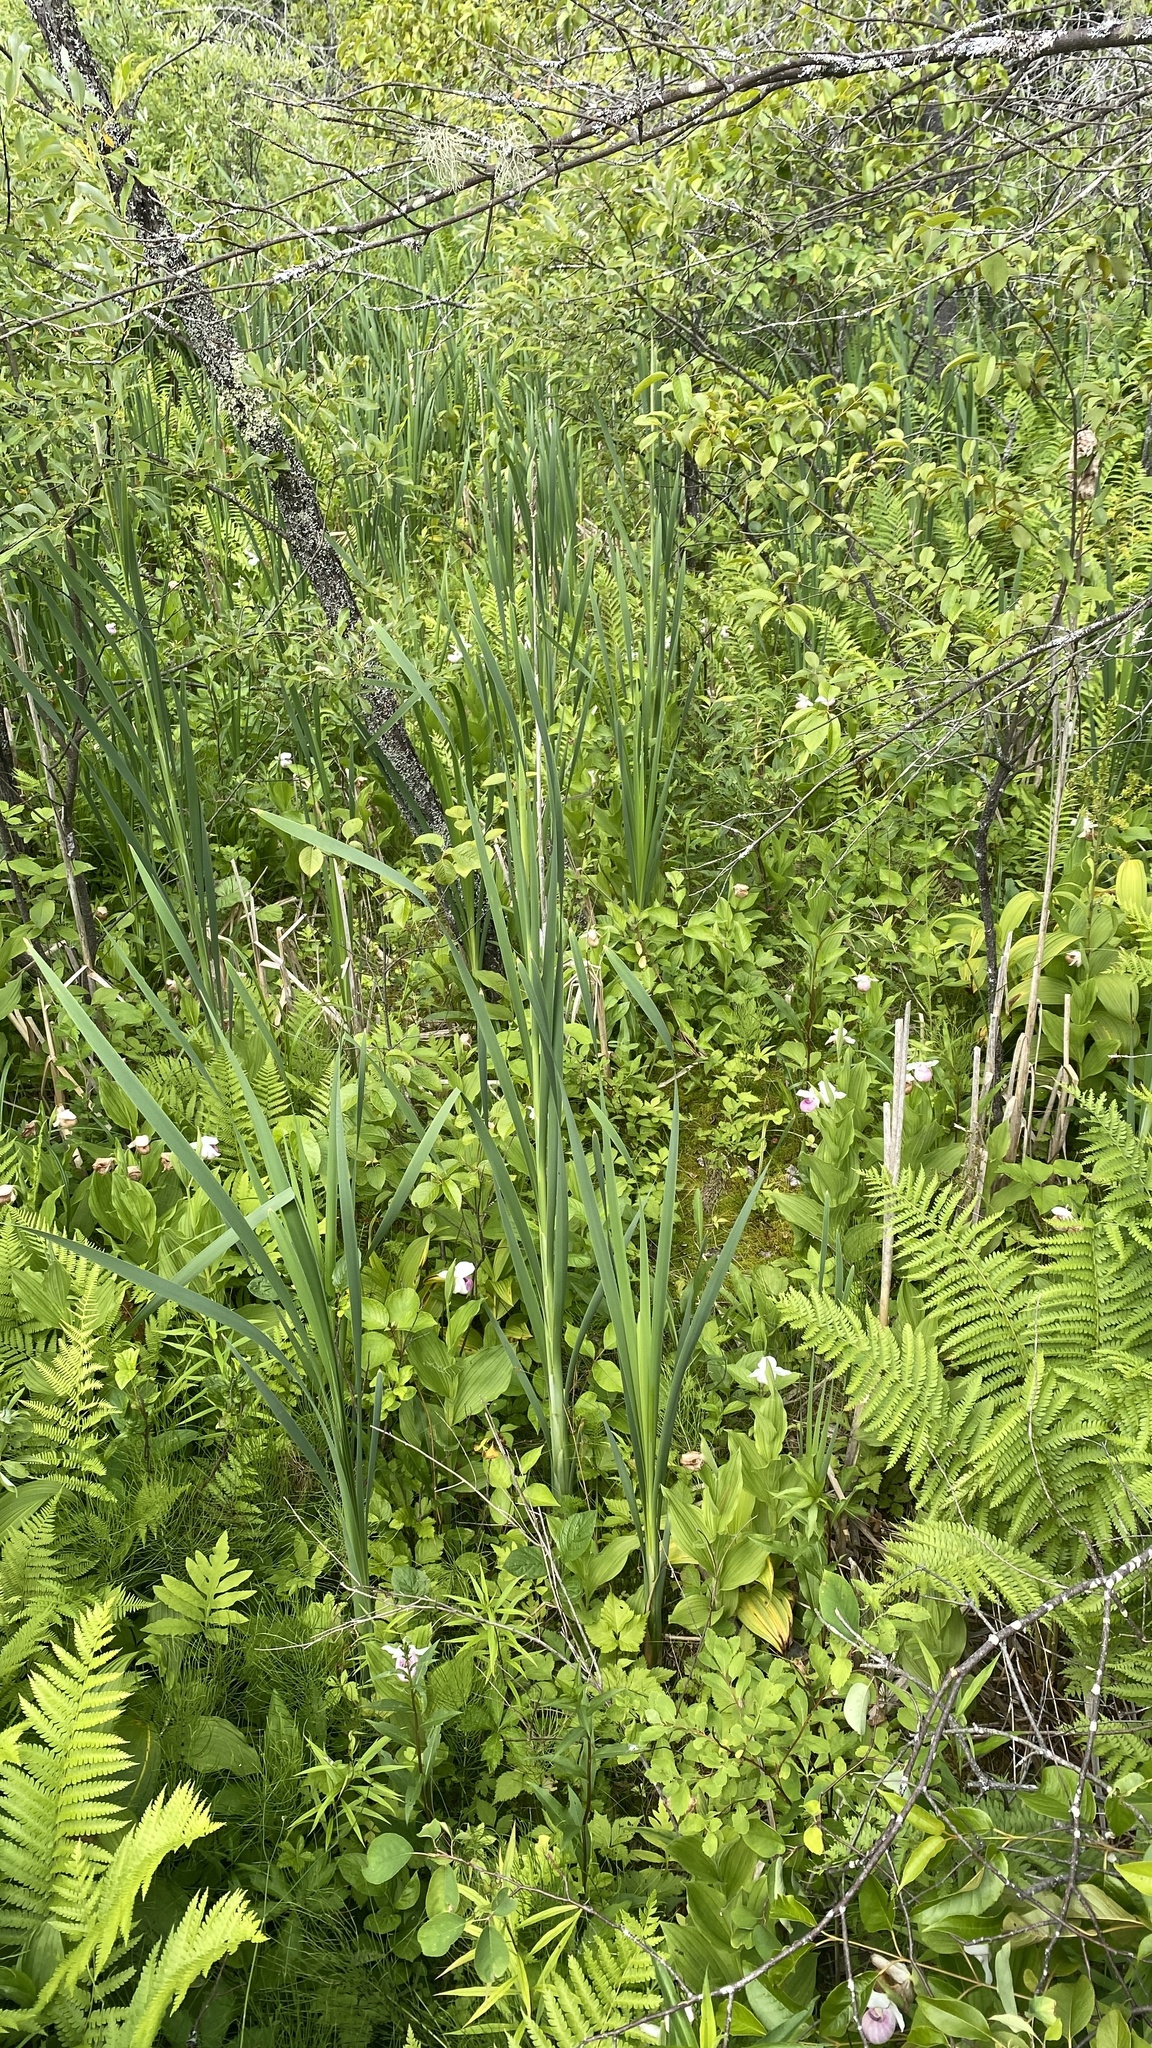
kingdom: Plantae
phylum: Tracheophyta
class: Liliopsida
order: Asparagales
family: Orchidaceae
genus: Cypripedium
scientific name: Cypripedium reginae
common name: Queen lady's-slipper
